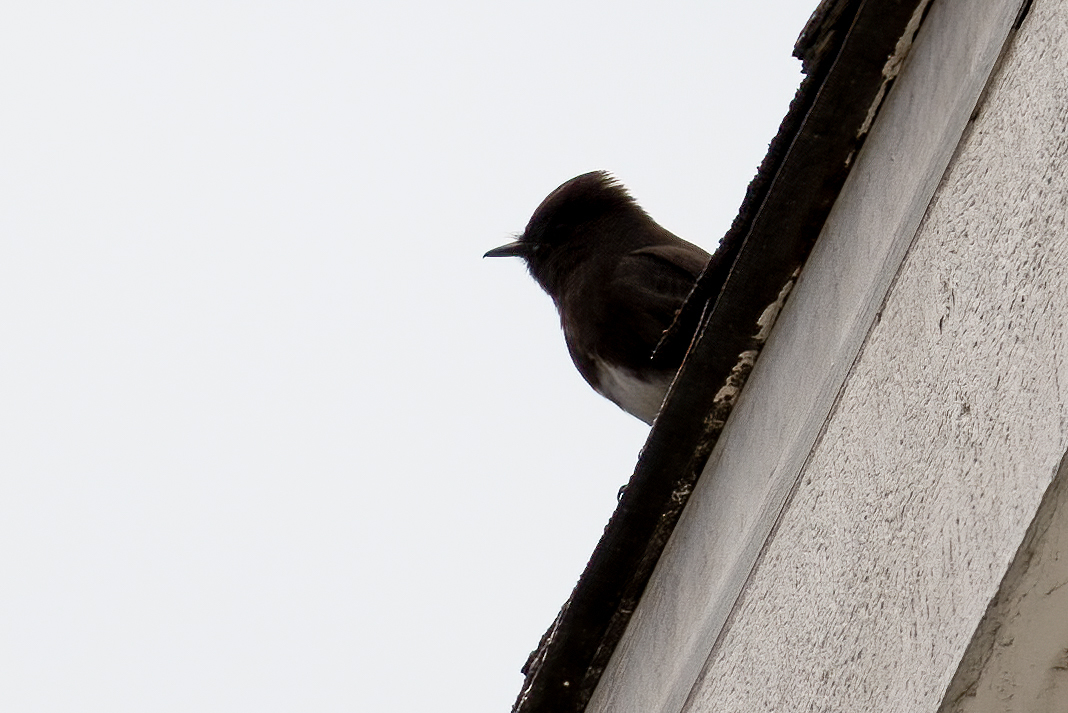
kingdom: Animalia
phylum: Chordata
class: Aves
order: Passeriformes
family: Tyrannidae
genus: Sayornis
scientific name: Sayornis nigricans
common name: Black phoebe
